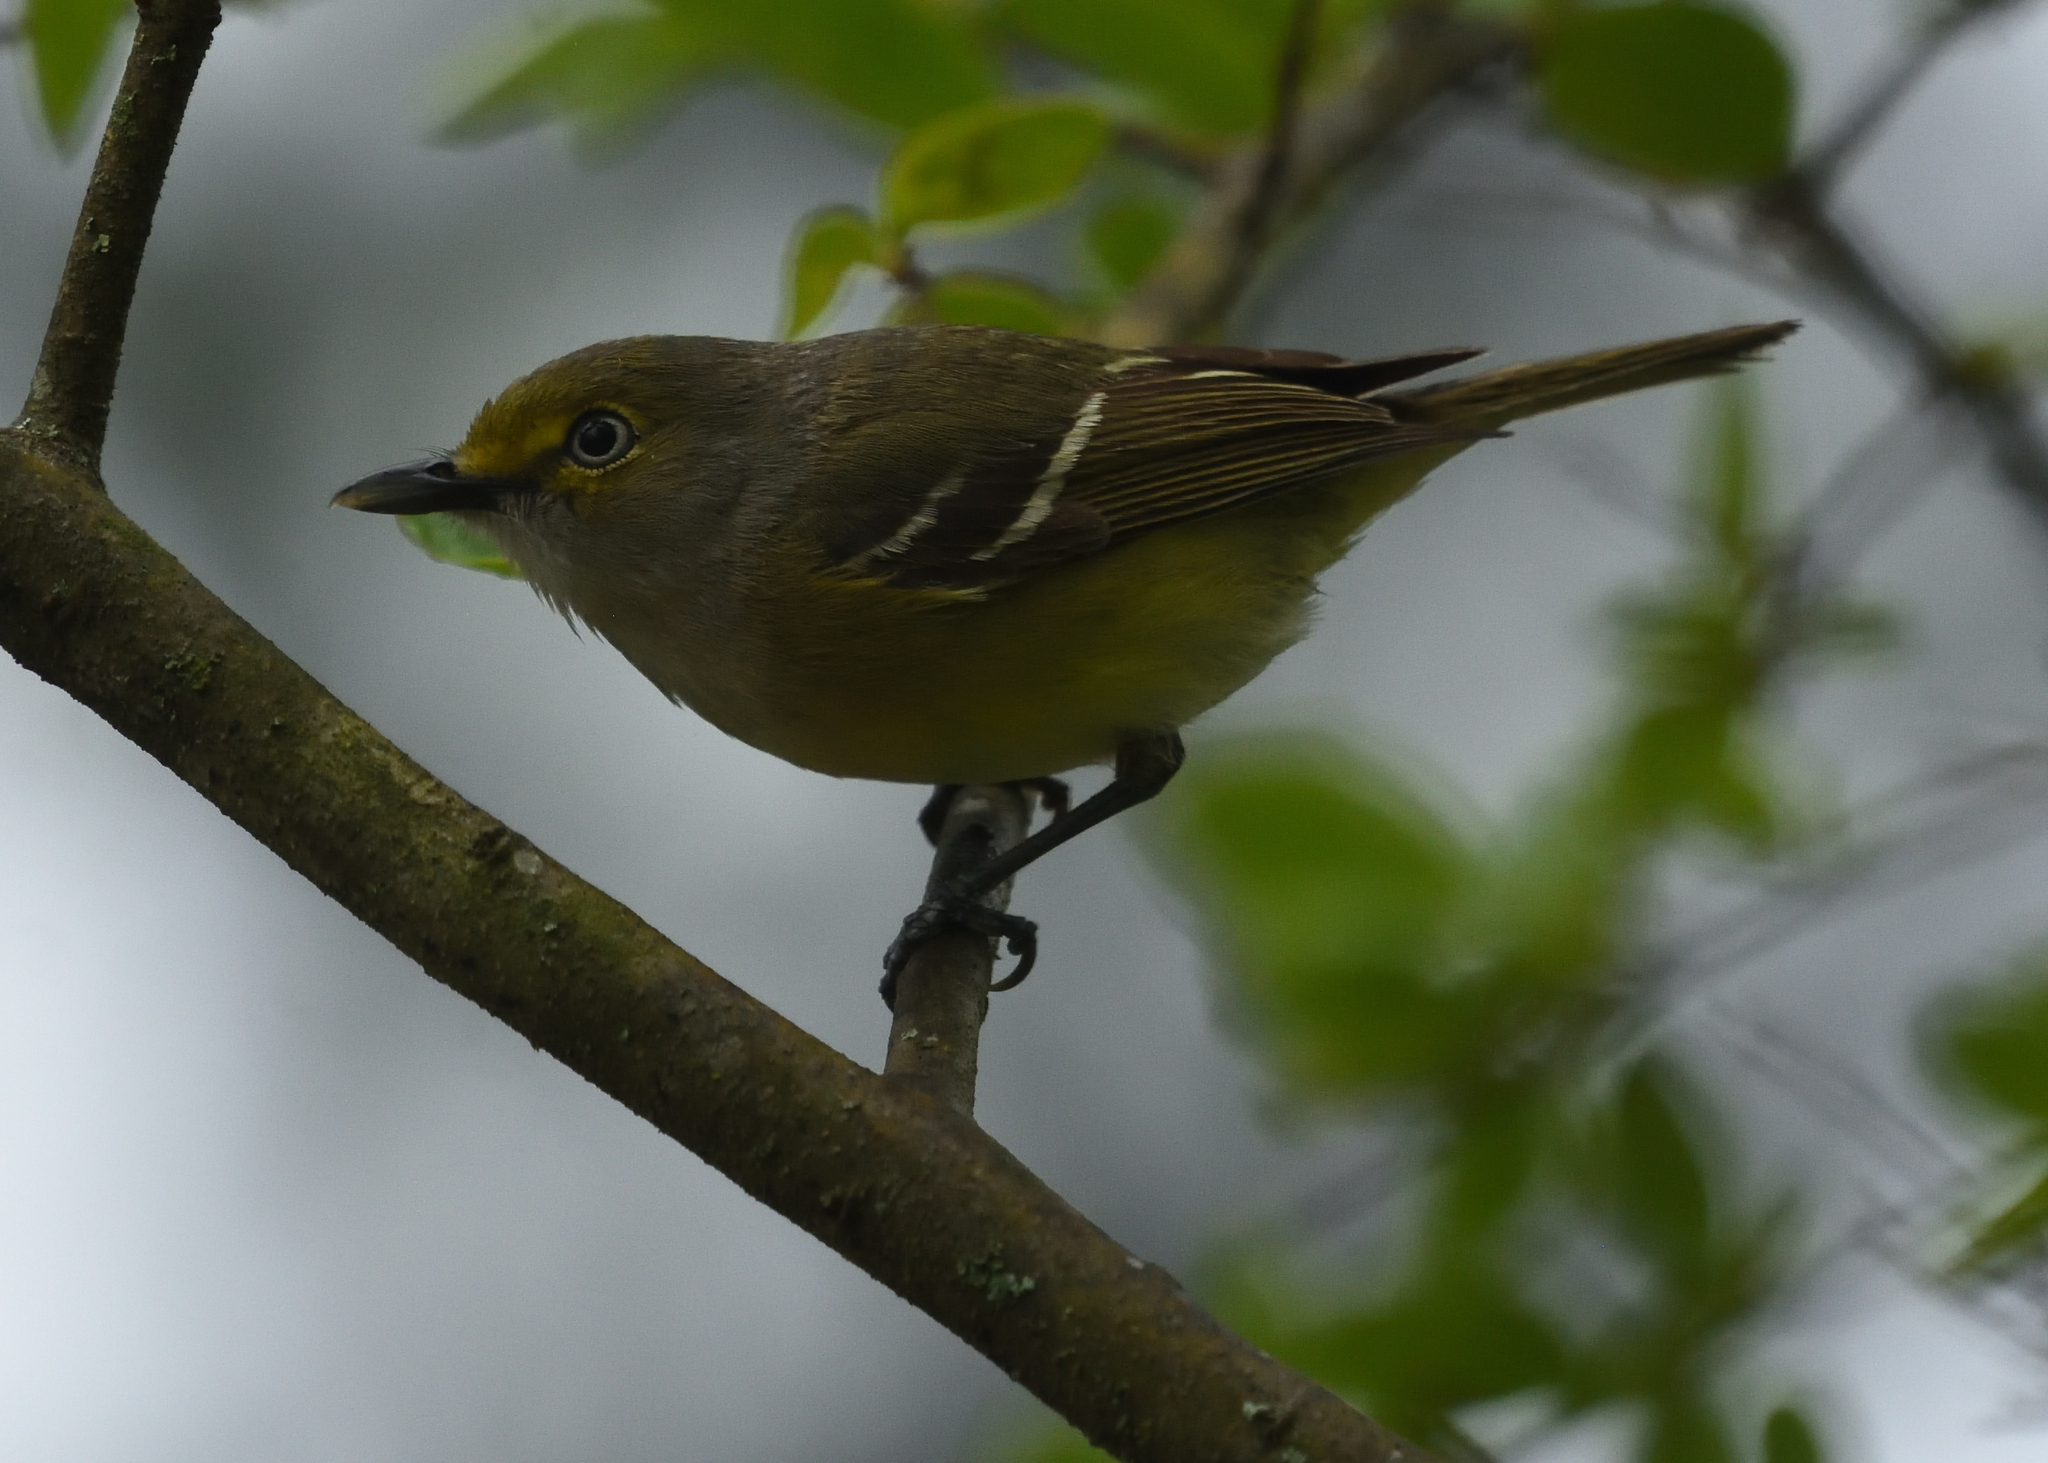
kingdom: Animalia
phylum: Chordata
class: Aves
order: Passeriformes
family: Vireonidae
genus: Vireo
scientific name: Vireo griseus
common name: White-eyed vireo
